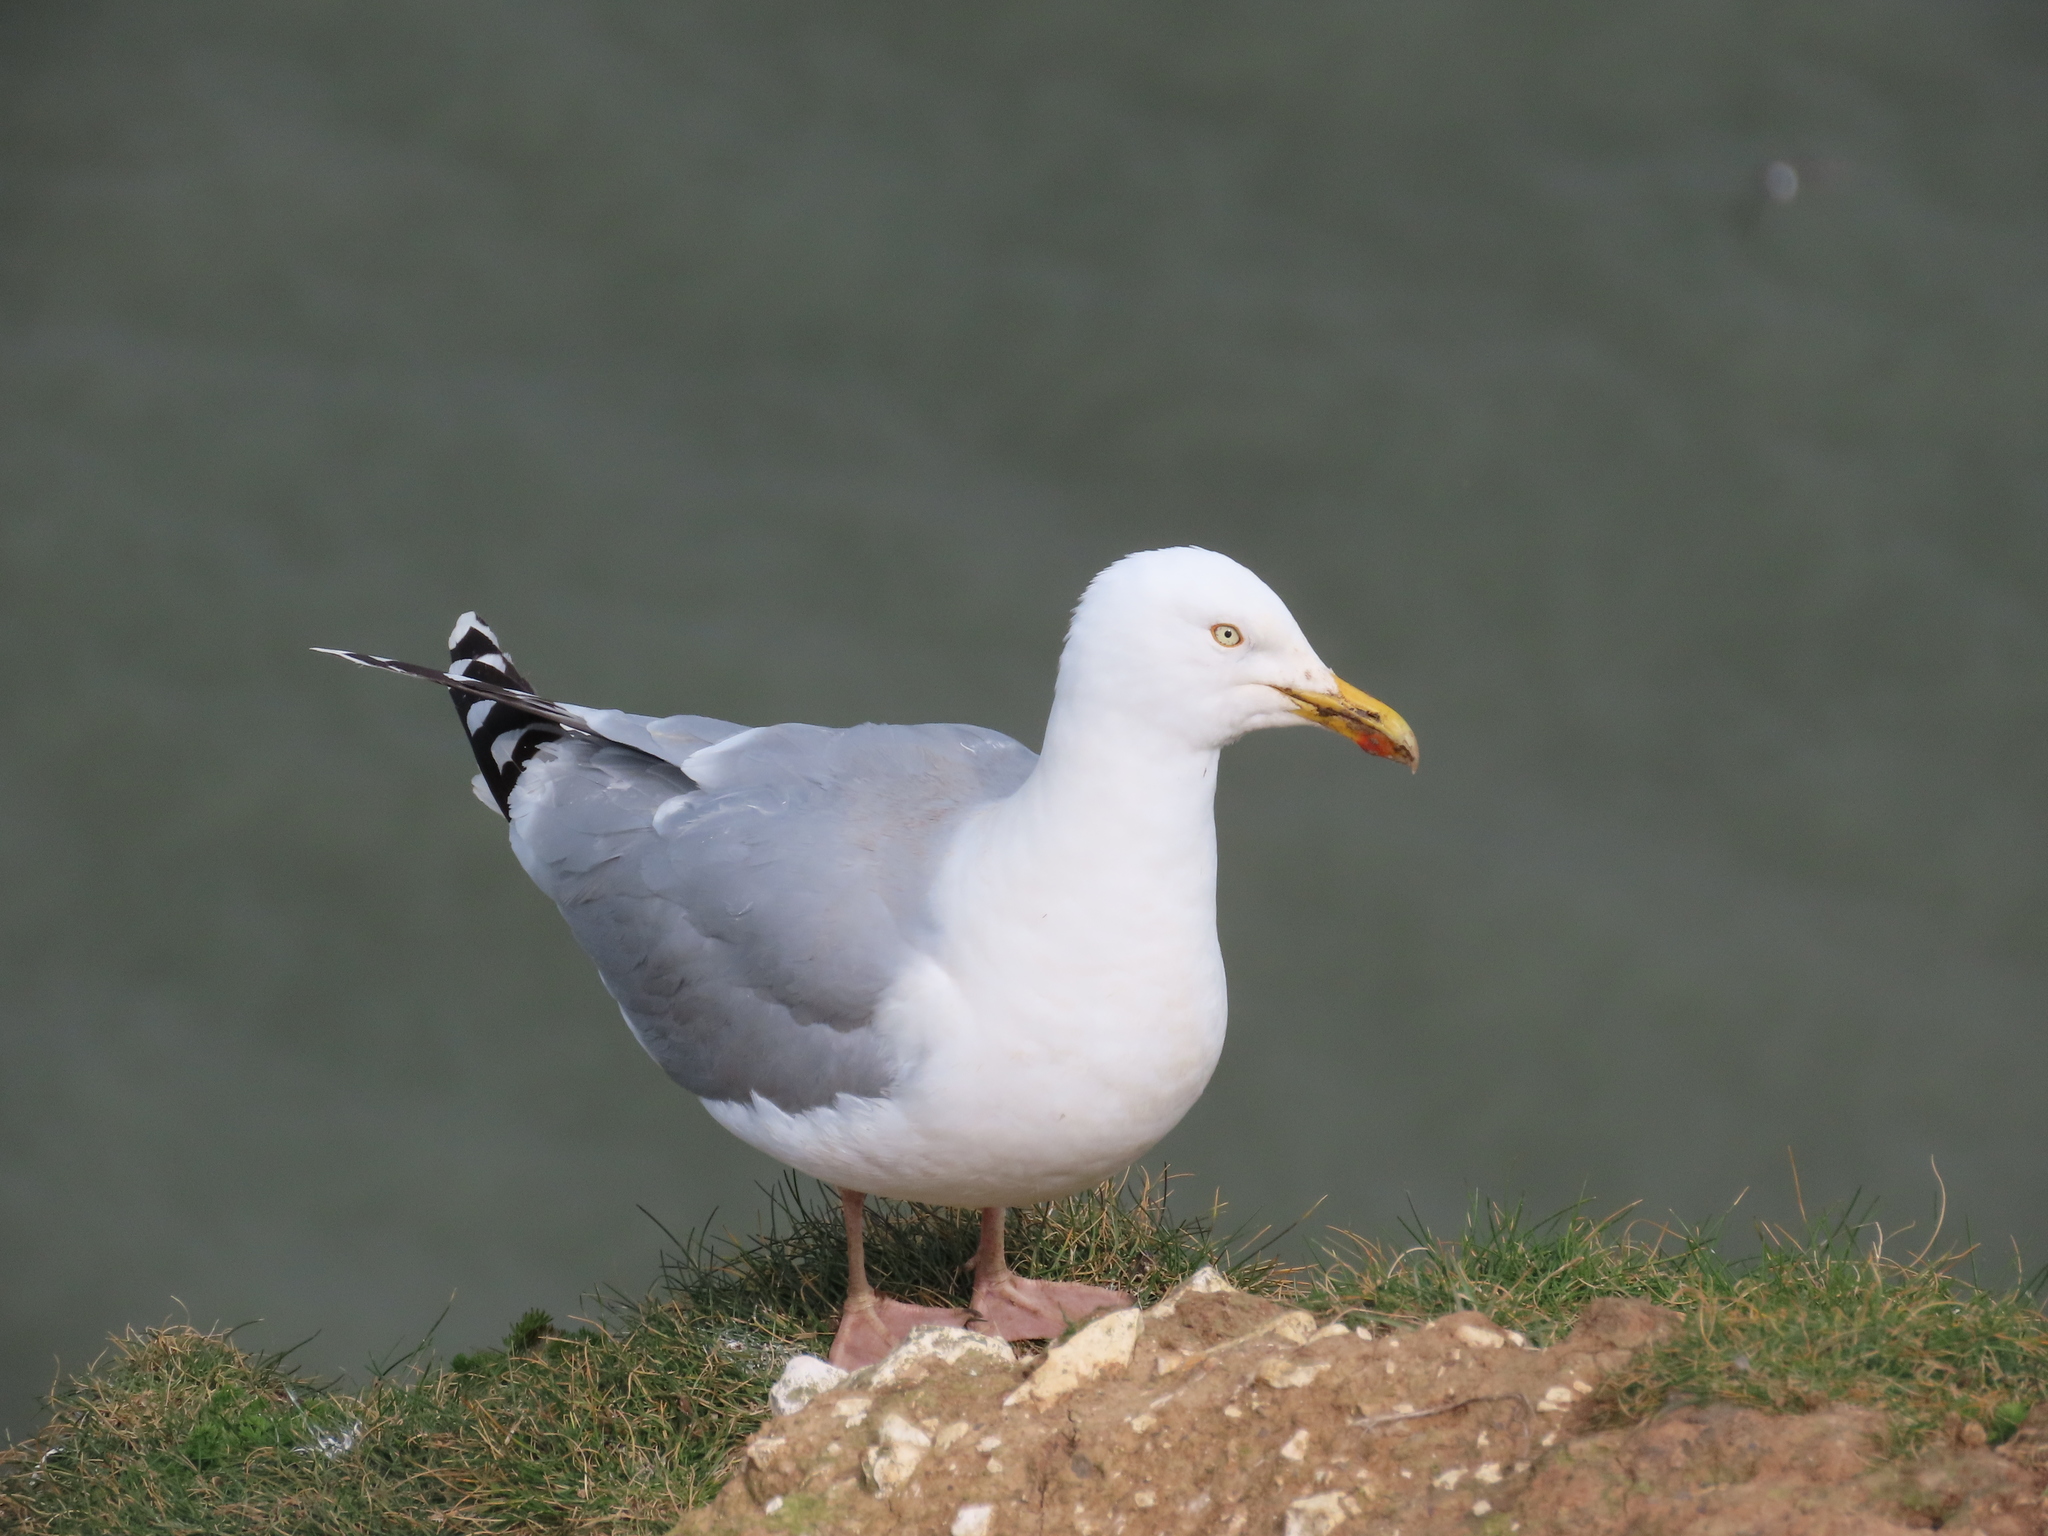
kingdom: Animalia
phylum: Chordata
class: Aves
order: Charadriiformes
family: Laridae
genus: Larus
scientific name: Larus argentatus
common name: Herring gull
